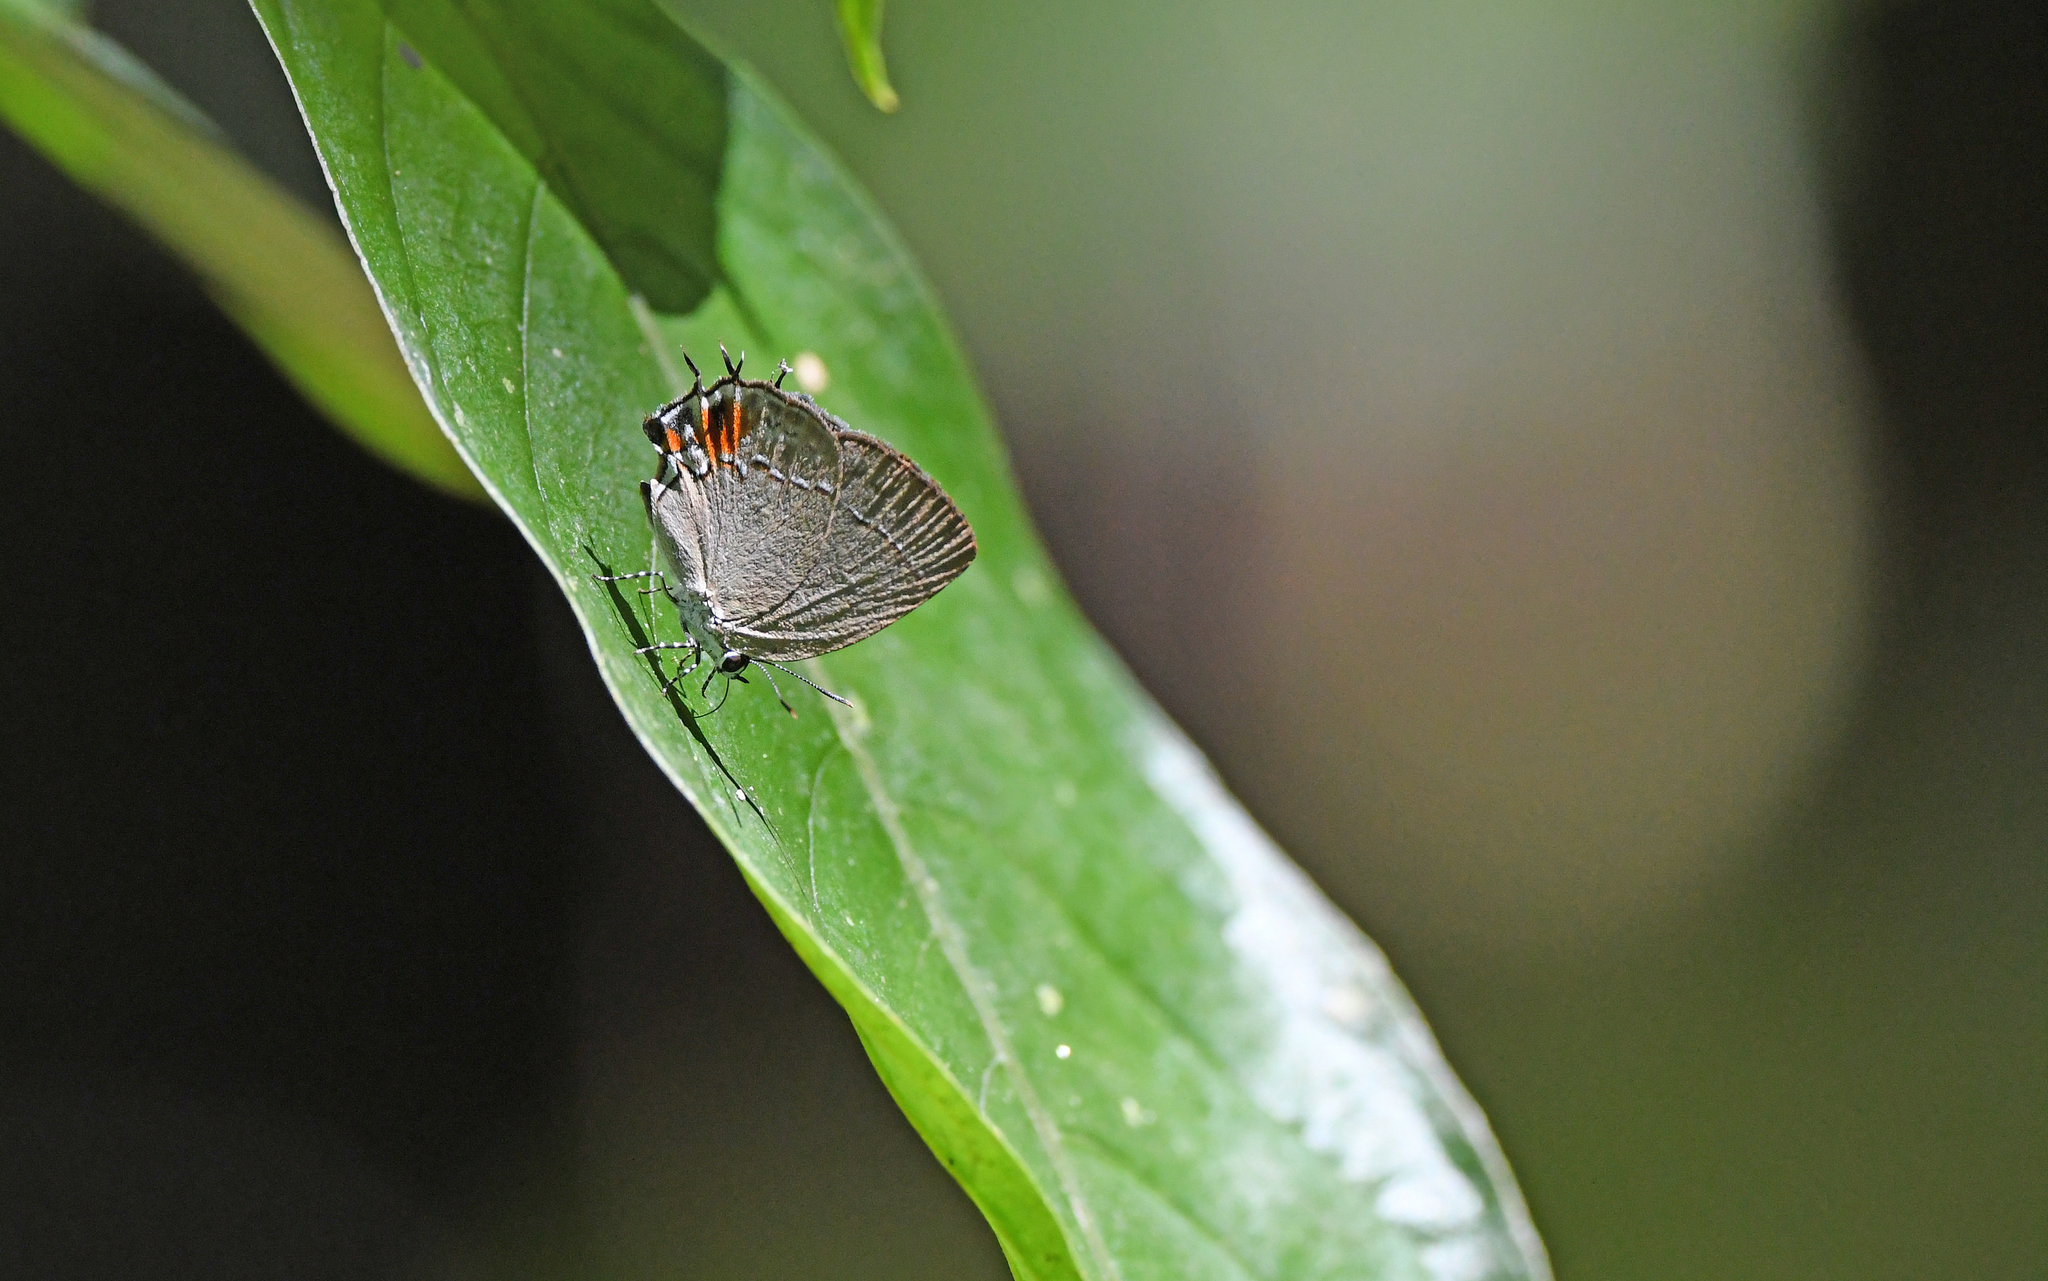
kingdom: Animalia
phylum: Arthropoda
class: Insecta
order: Lepidoptera
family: Lycaenidae
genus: Thecla
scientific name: Thecla gargara
